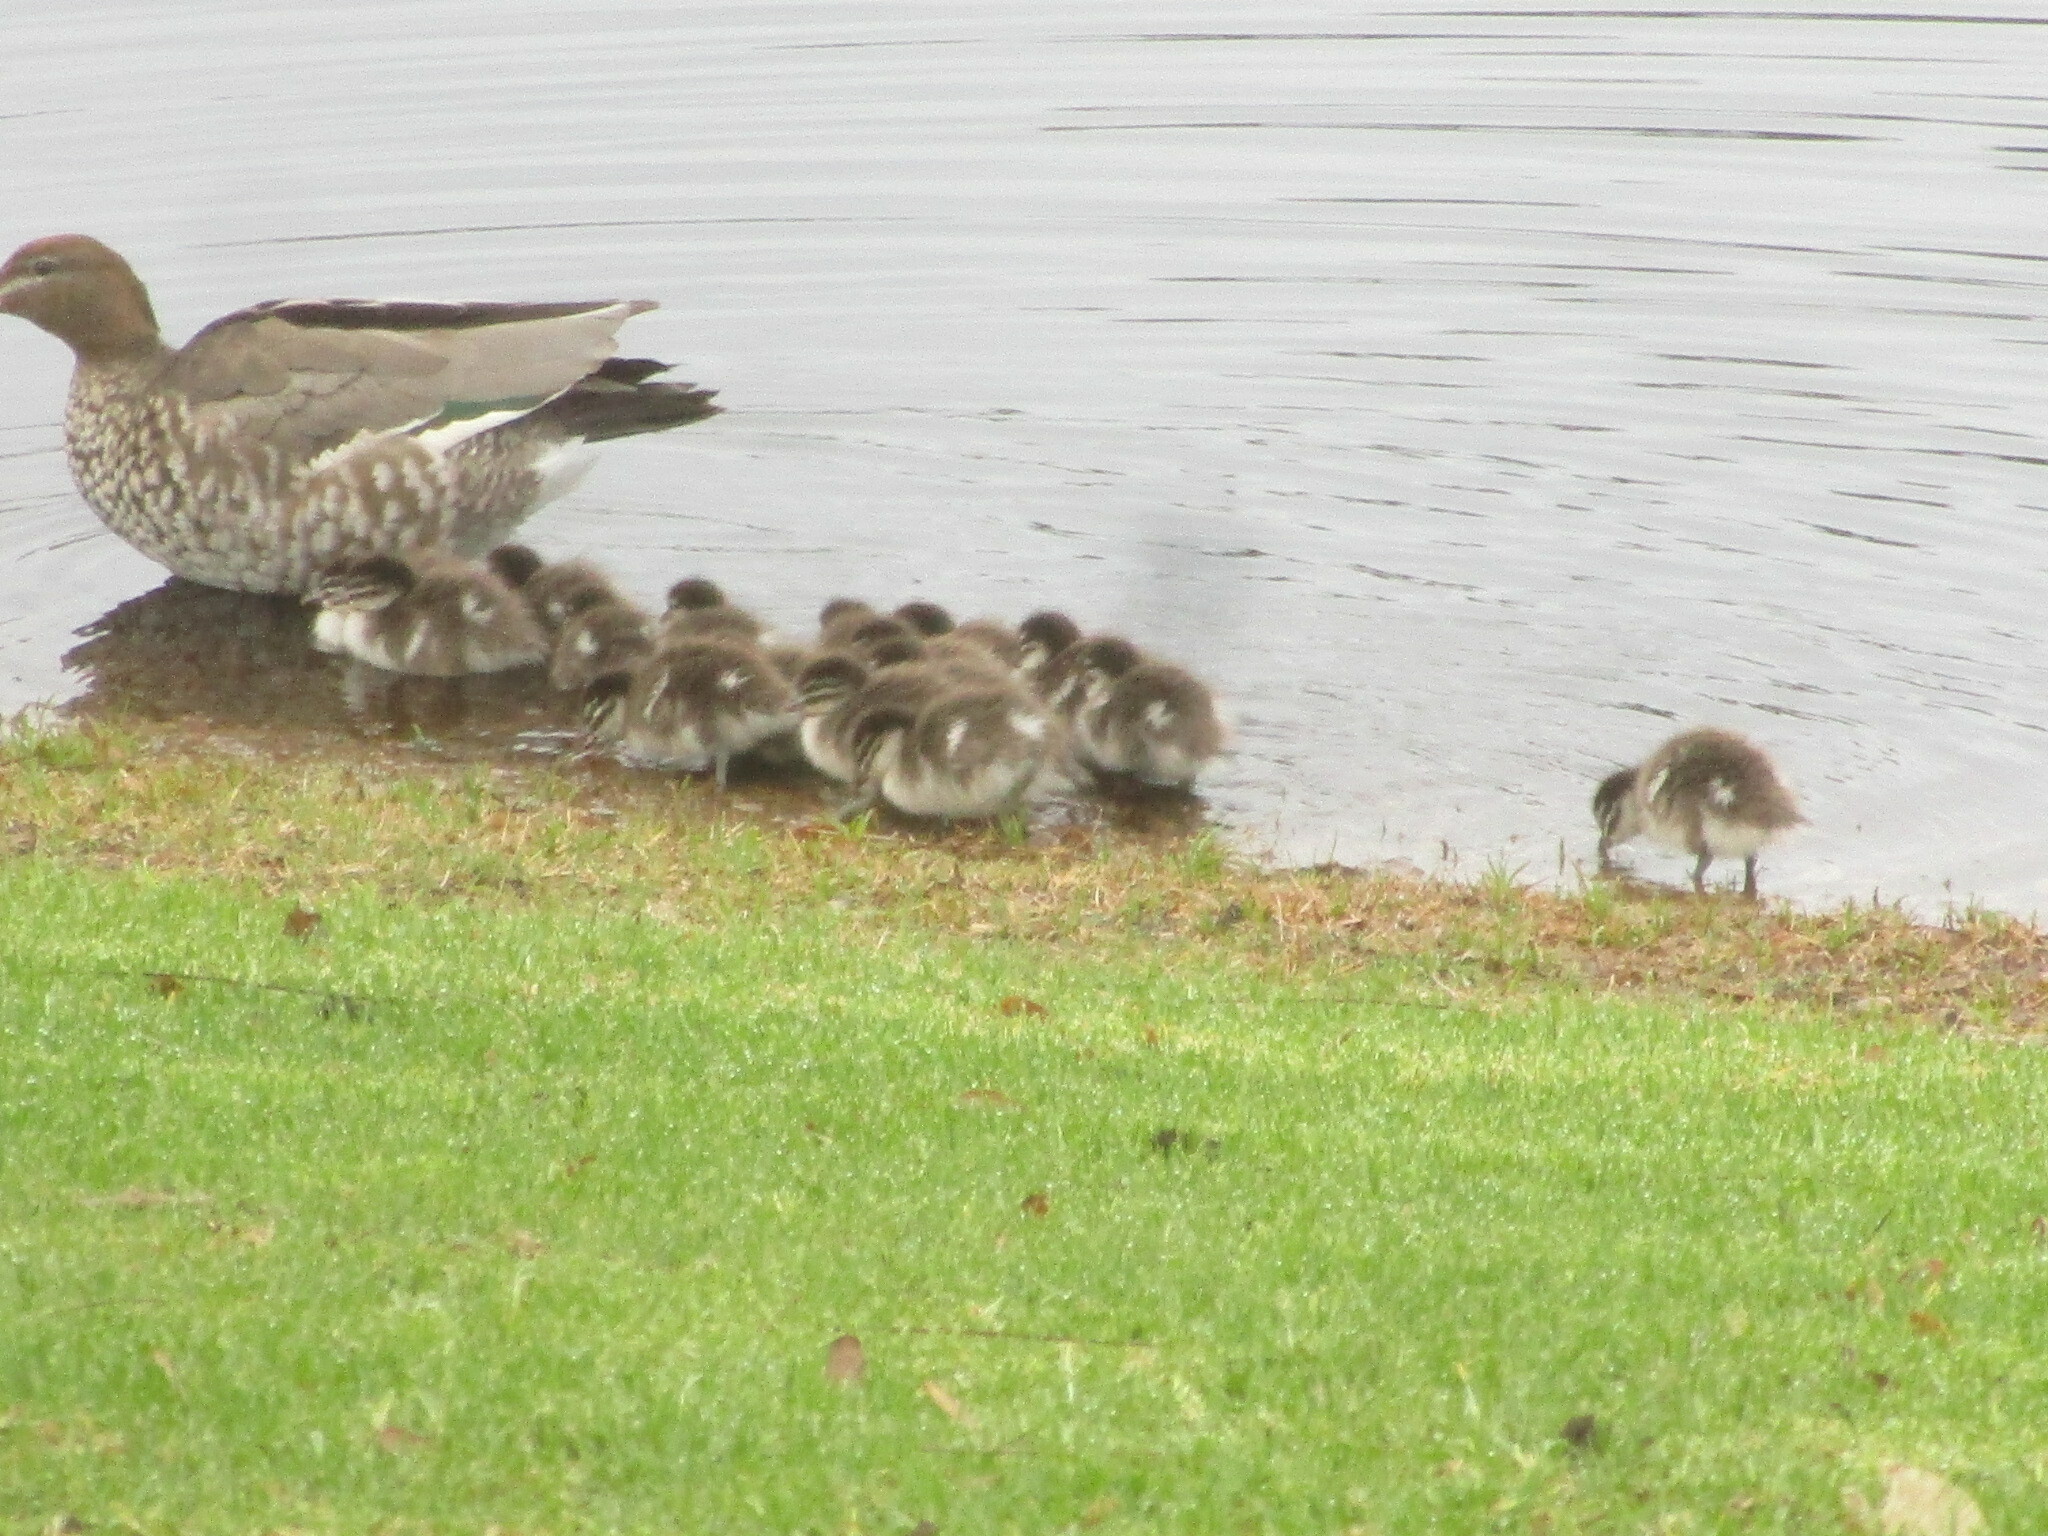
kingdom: Animalia
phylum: Chordata
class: Aves
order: Anseriformes
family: Anatidae
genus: Chenonetta
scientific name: Chenonetta jubata
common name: Maned duck
